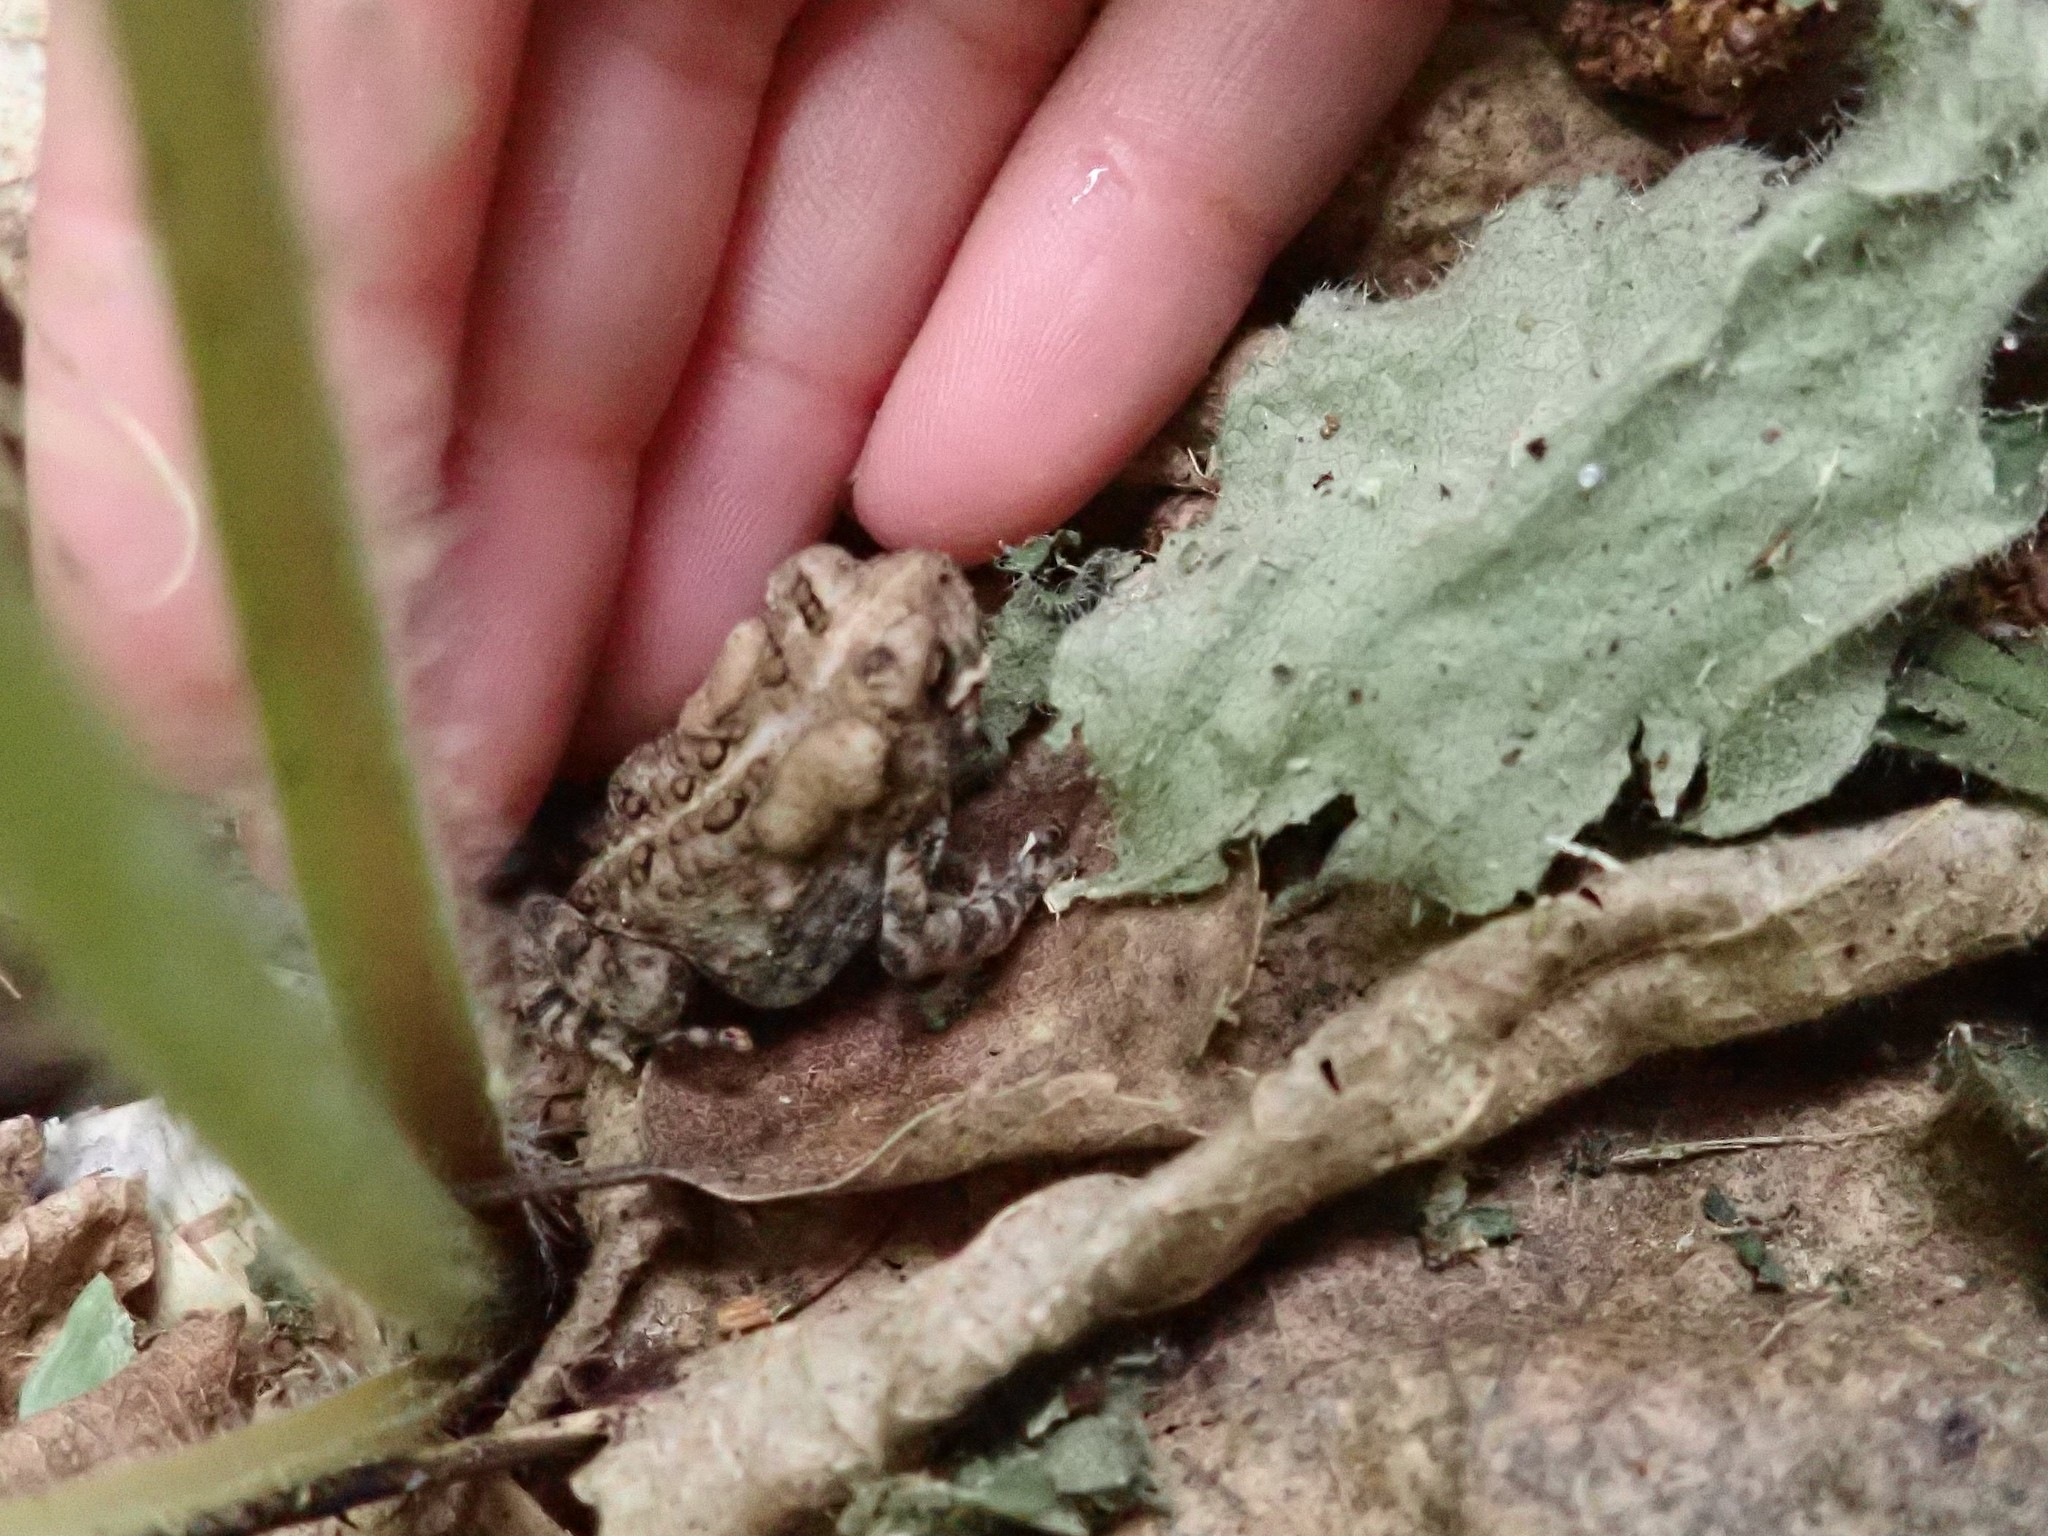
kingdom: Animalia
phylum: Chordata
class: Amphibia
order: Anura
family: Bufonidae
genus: Anaxyrus
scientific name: Anaxyrus americanus
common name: American toad
